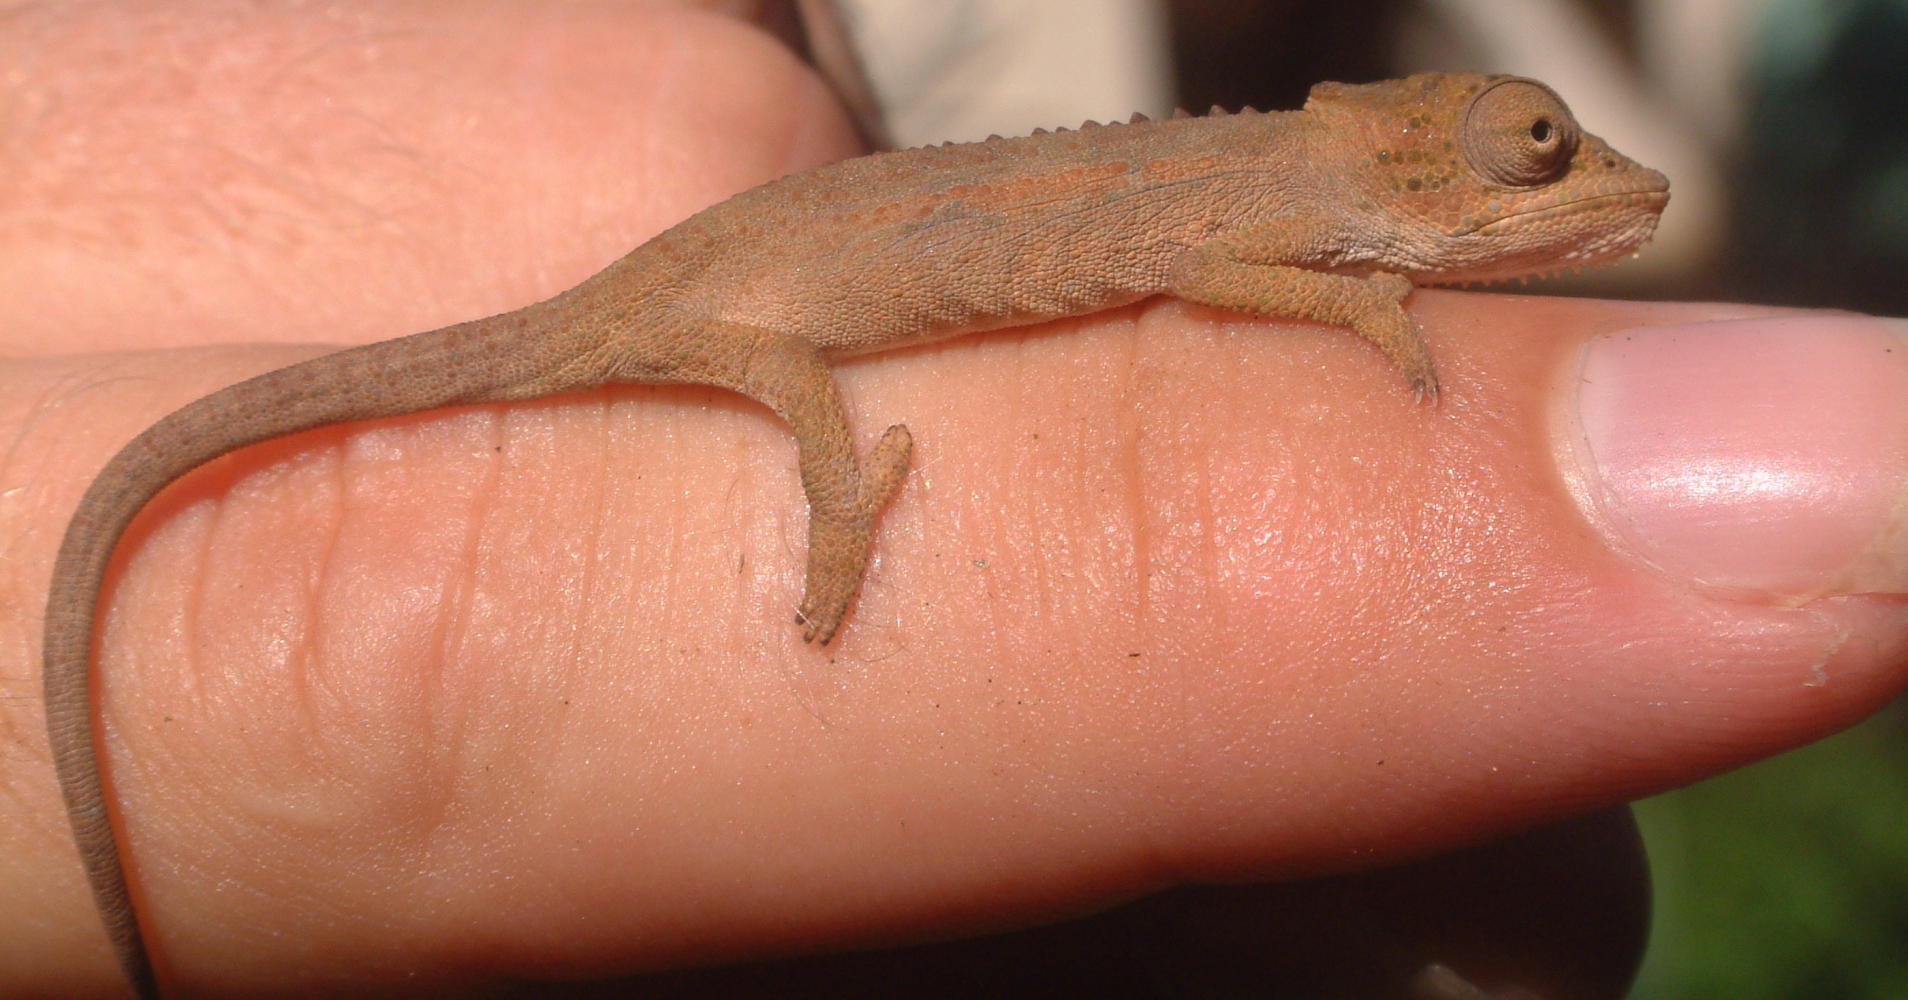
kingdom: Animalia
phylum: Chordata
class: Squamata
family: Chamaeleonidae
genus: Bradypodion
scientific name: Bradypodion setaroi
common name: Setaro's dwarf chameleon
